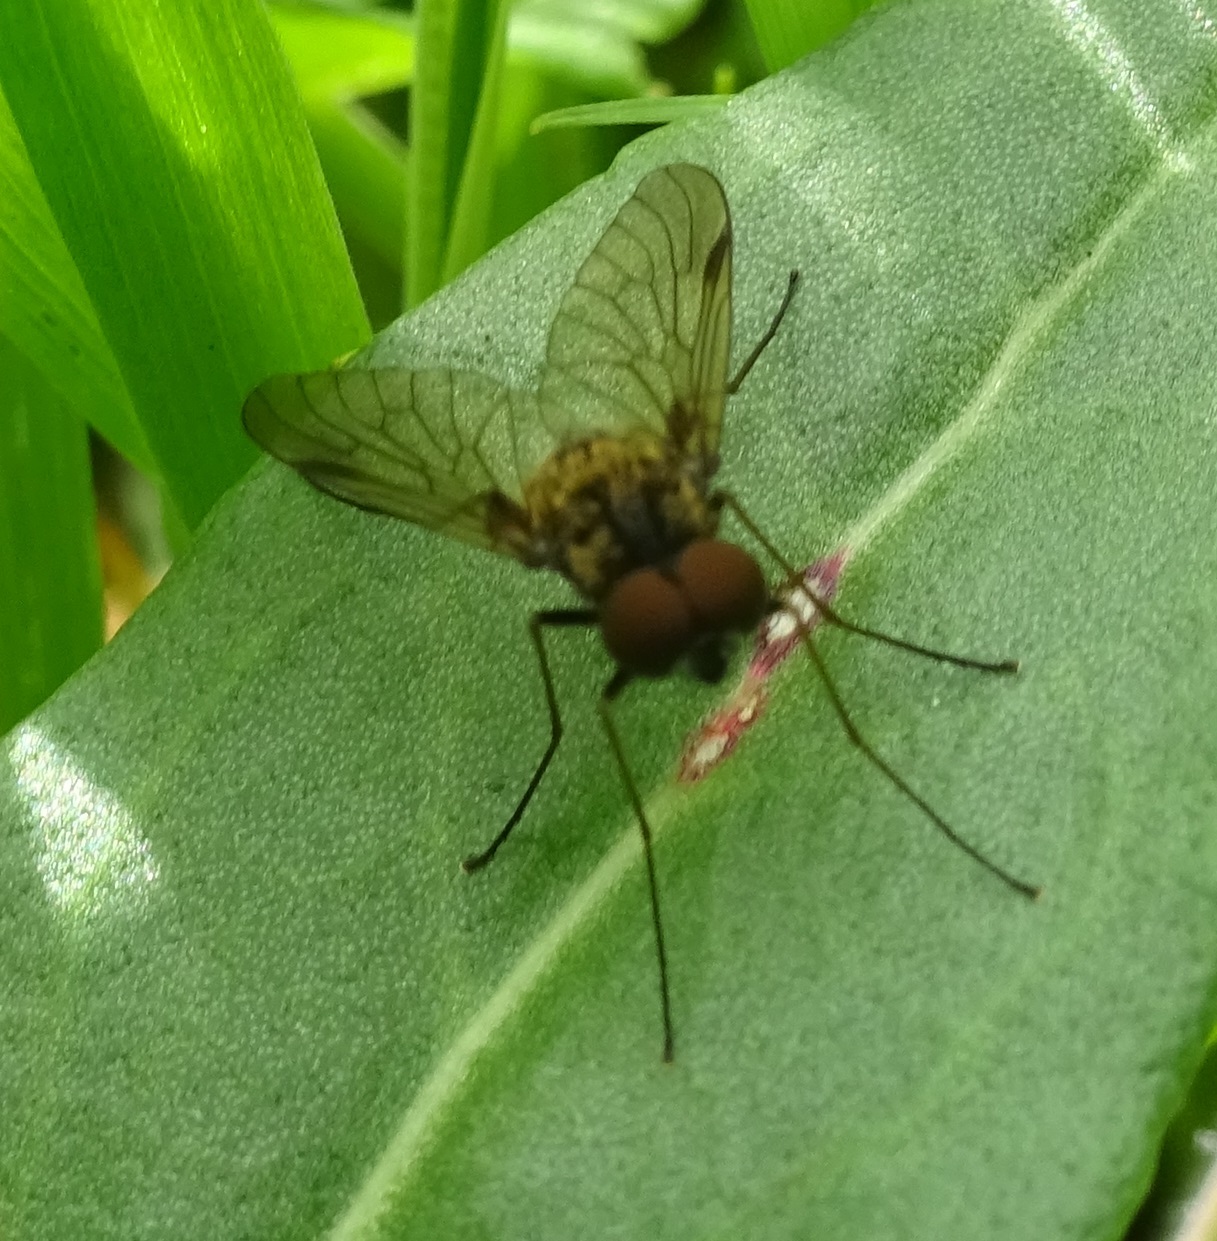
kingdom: Animalia
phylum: Arthropoda
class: Insecta
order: Diptera
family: Rhagionidae
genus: Chrysopilus
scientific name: Chrysopilus cristatus
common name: Black snipefly
